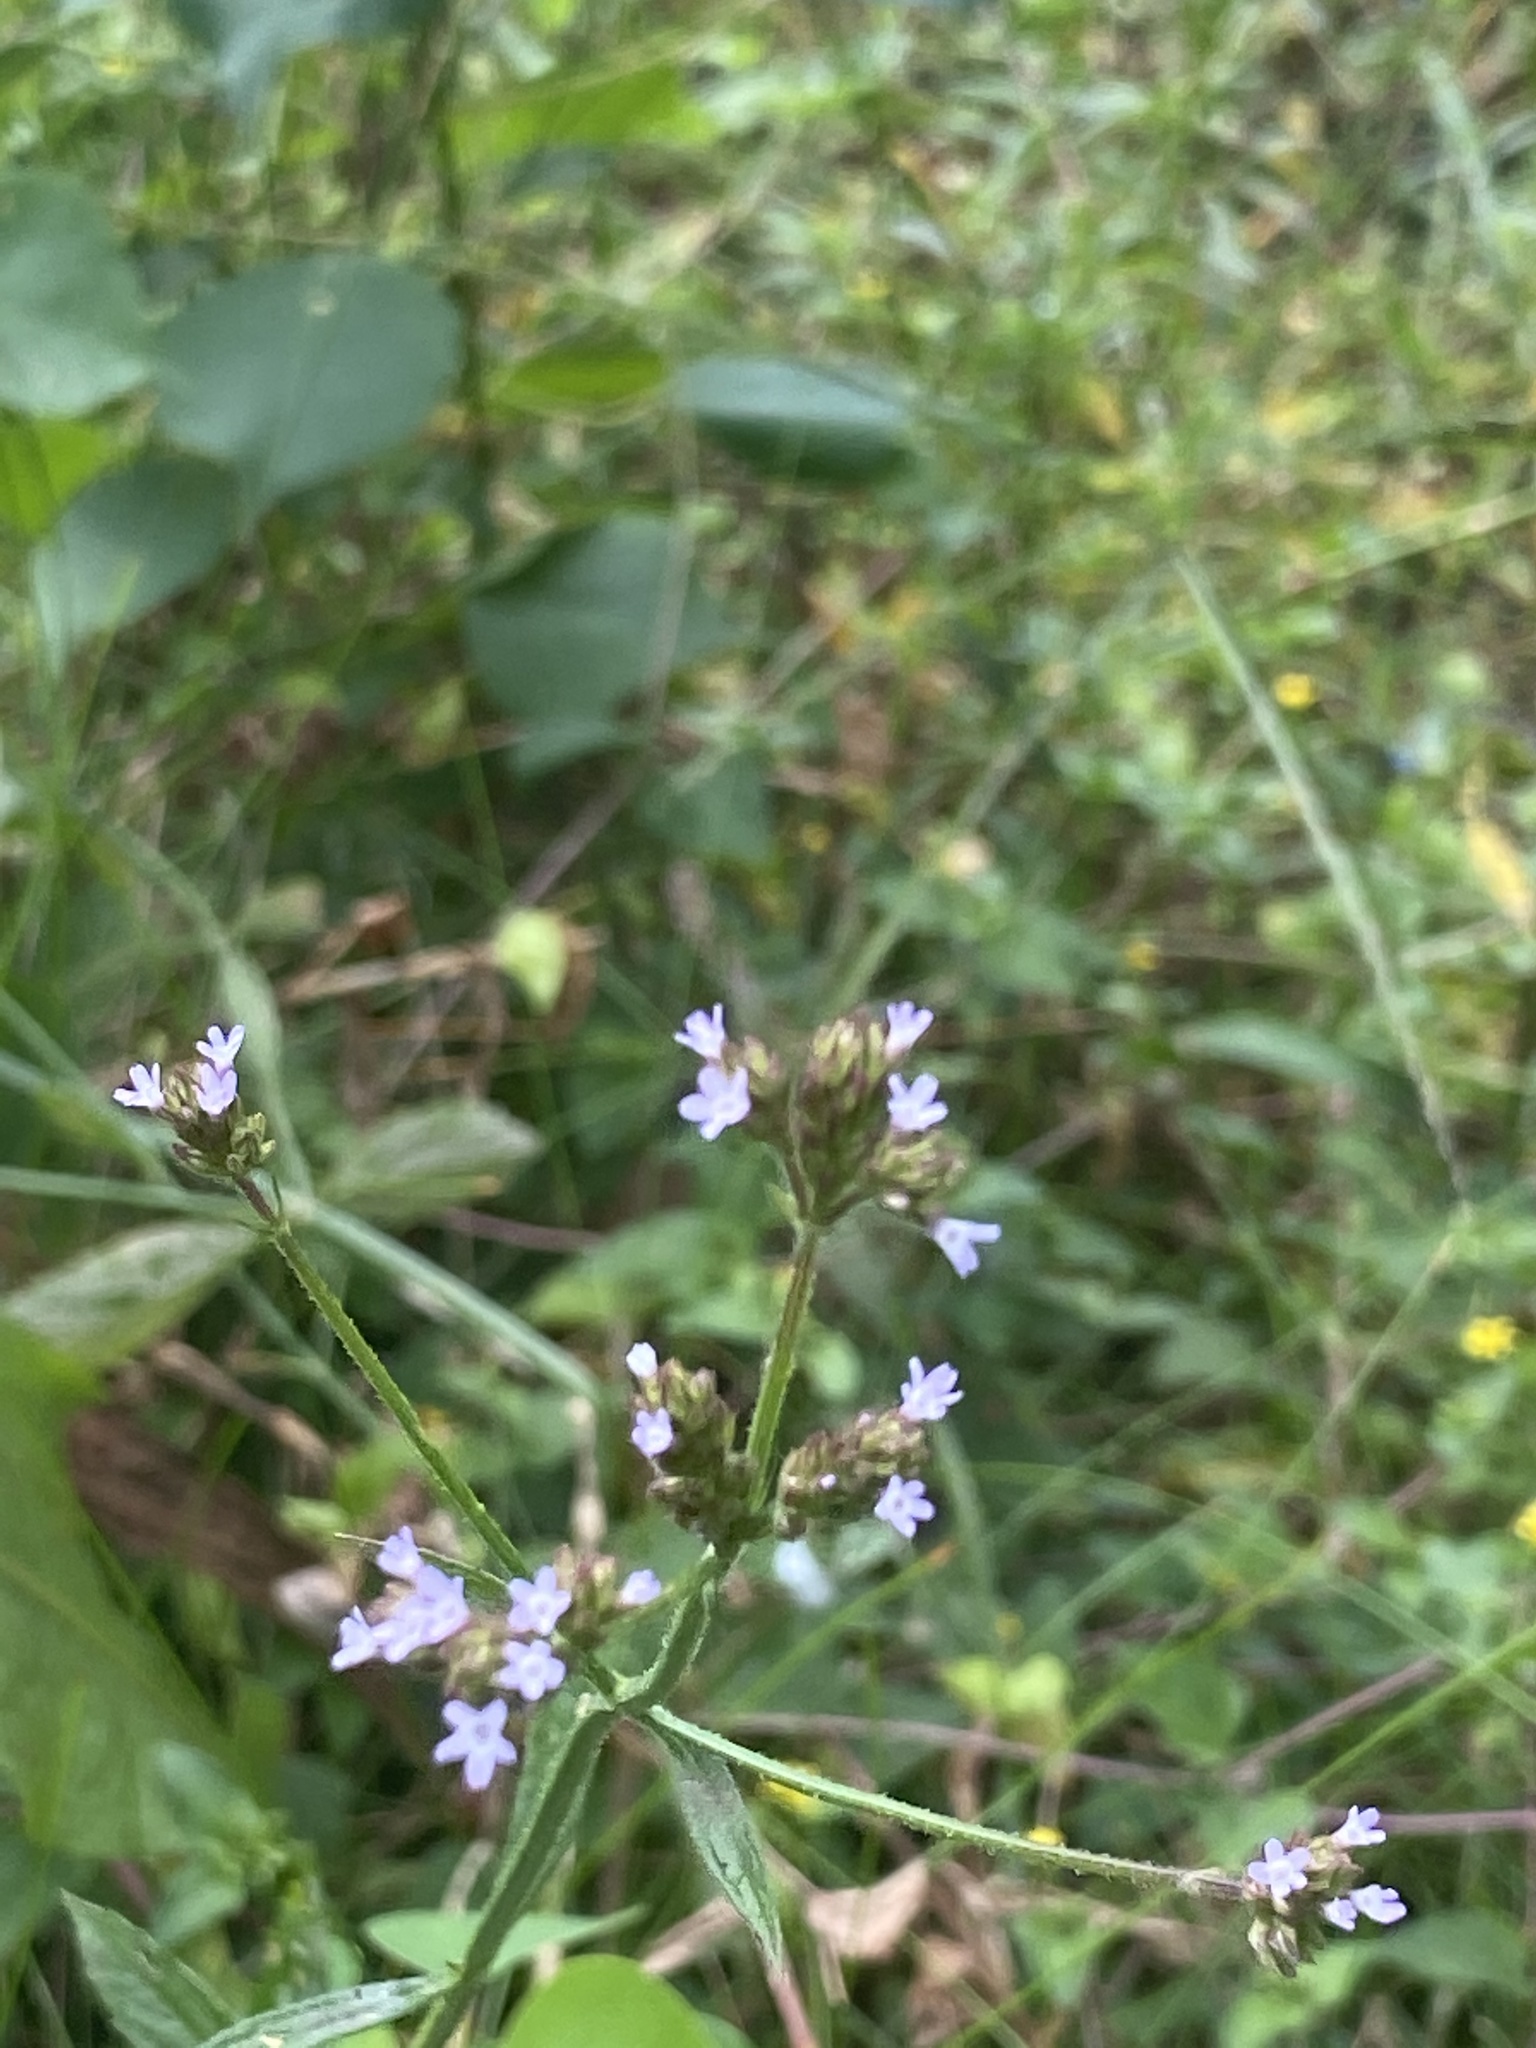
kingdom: Plantae
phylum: Tracheophyta
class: Magnoliopsida
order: Lamiales
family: Verbenaceae
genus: Verbena
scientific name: Verbena brasiliensis
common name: Brazilian vervain
